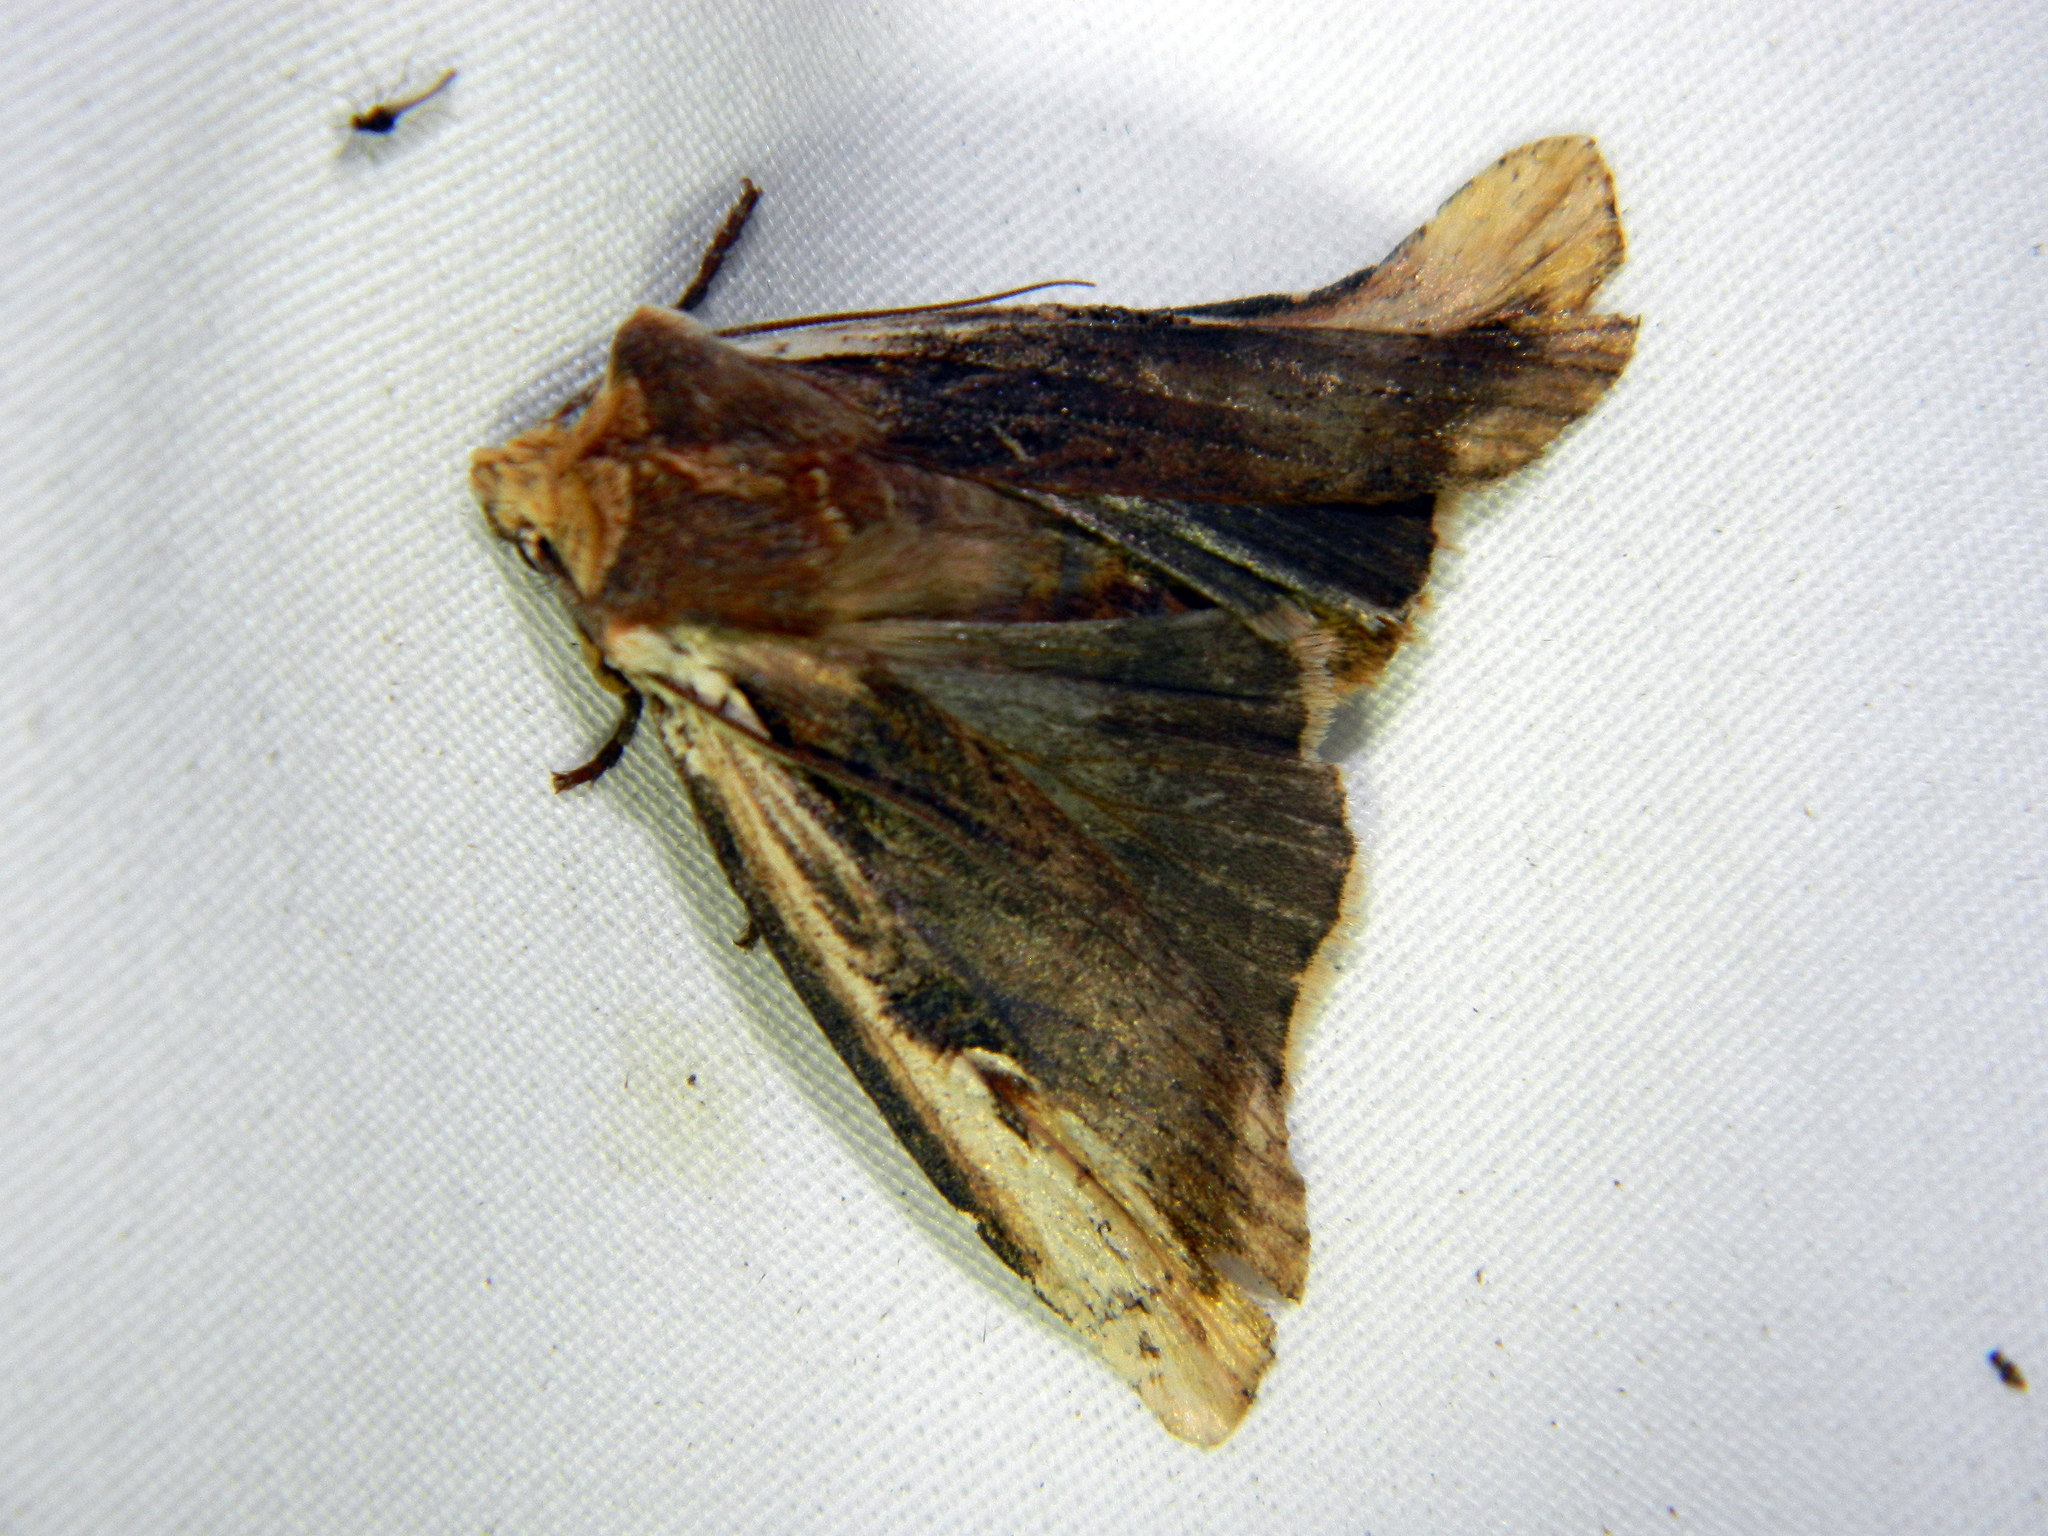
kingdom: Animalia
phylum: Arthropoda
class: Insecta
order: Lepidoptera
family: Noctuidae
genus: Xylena
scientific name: Xylena curvimacula
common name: Dot-and-dash swordgrass moth
